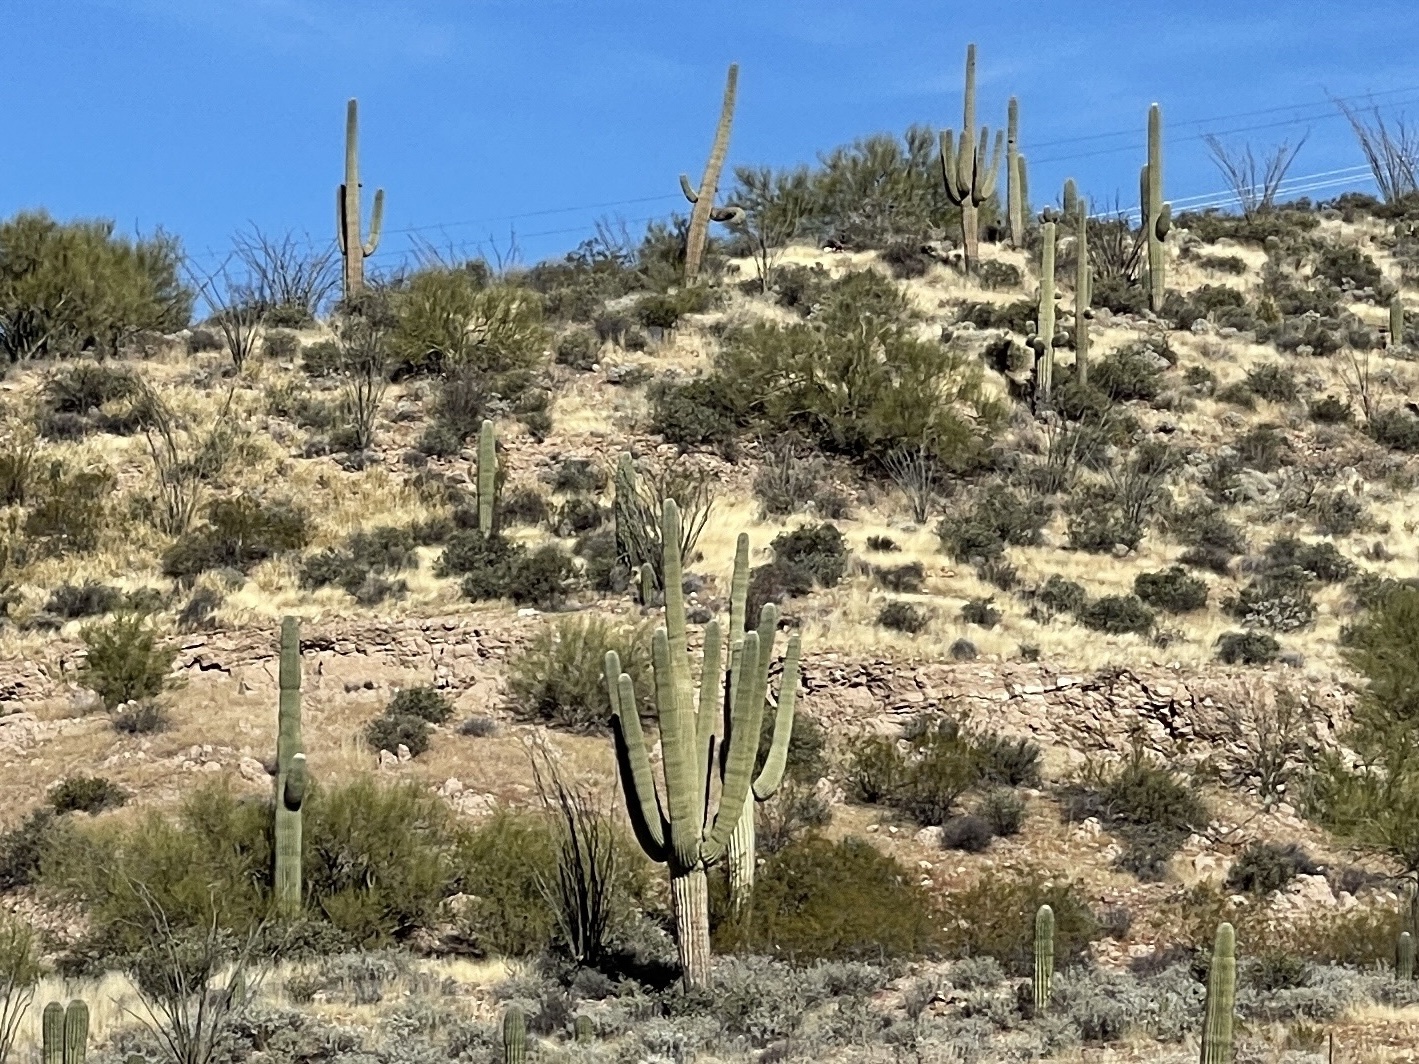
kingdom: Plantae
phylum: Tracheophyta
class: Magnoliopsida
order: Caryophyllales
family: Cactaceae
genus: Carnegiea
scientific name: Carnegiea gigantea
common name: Saguaro
